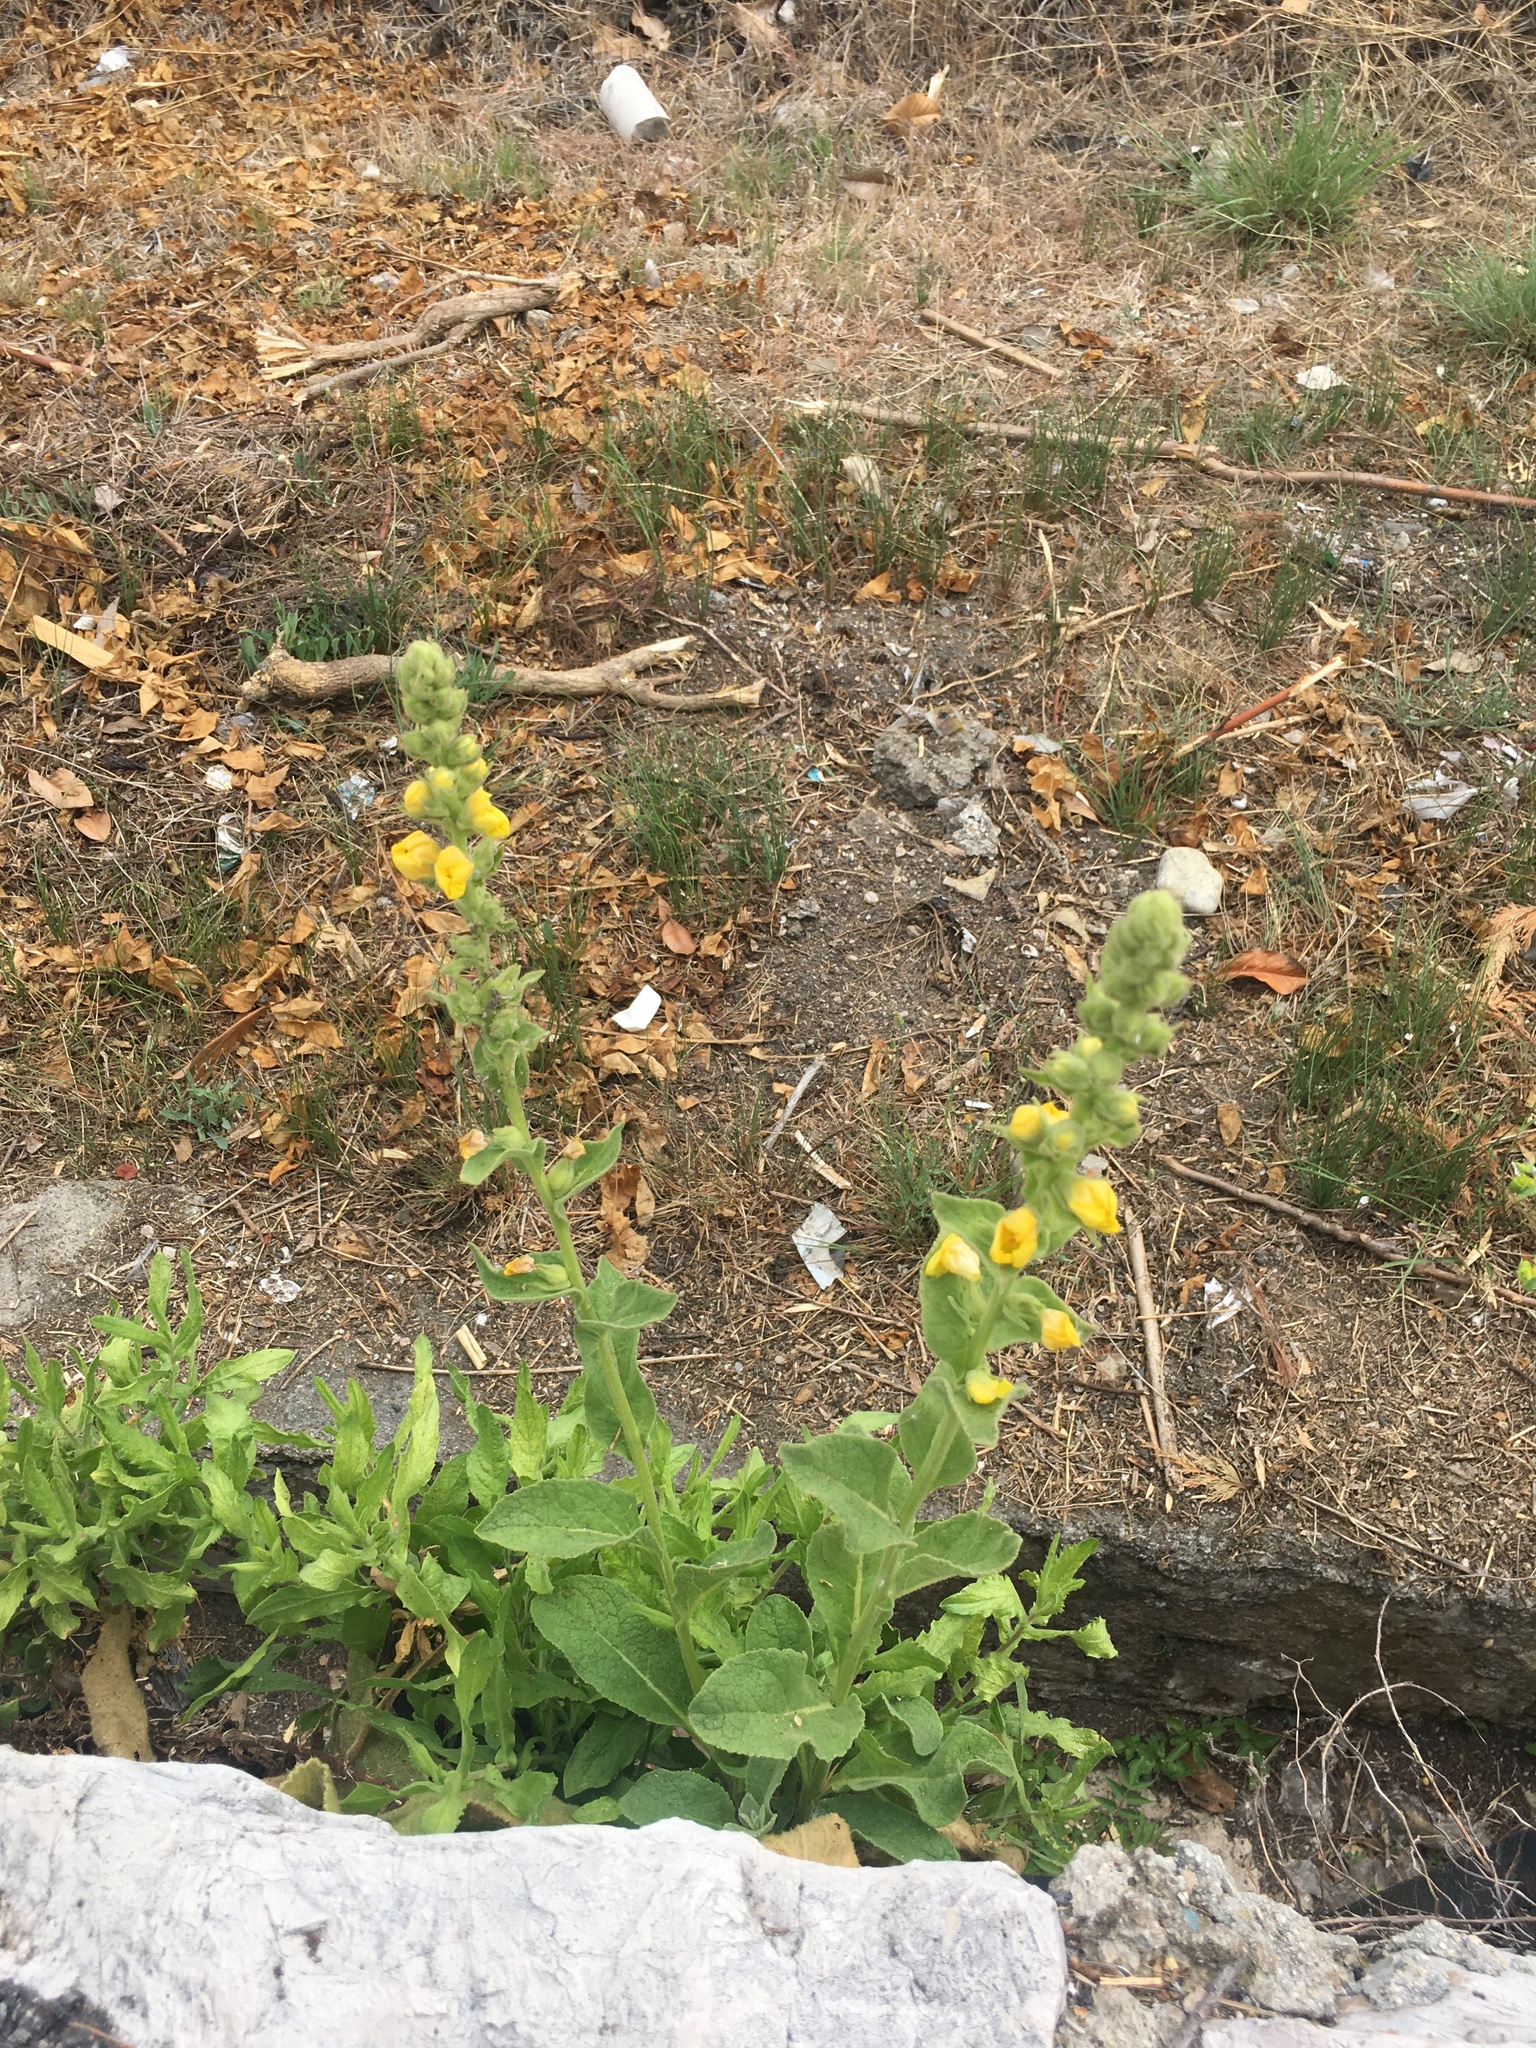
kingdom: Plantae
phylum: Tracheophyta
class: Magnoliopsida
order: Lamiales
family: Scrophulariaceae
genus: Verbascum
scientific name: Verbascum phlomoides
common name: Orange mullein
